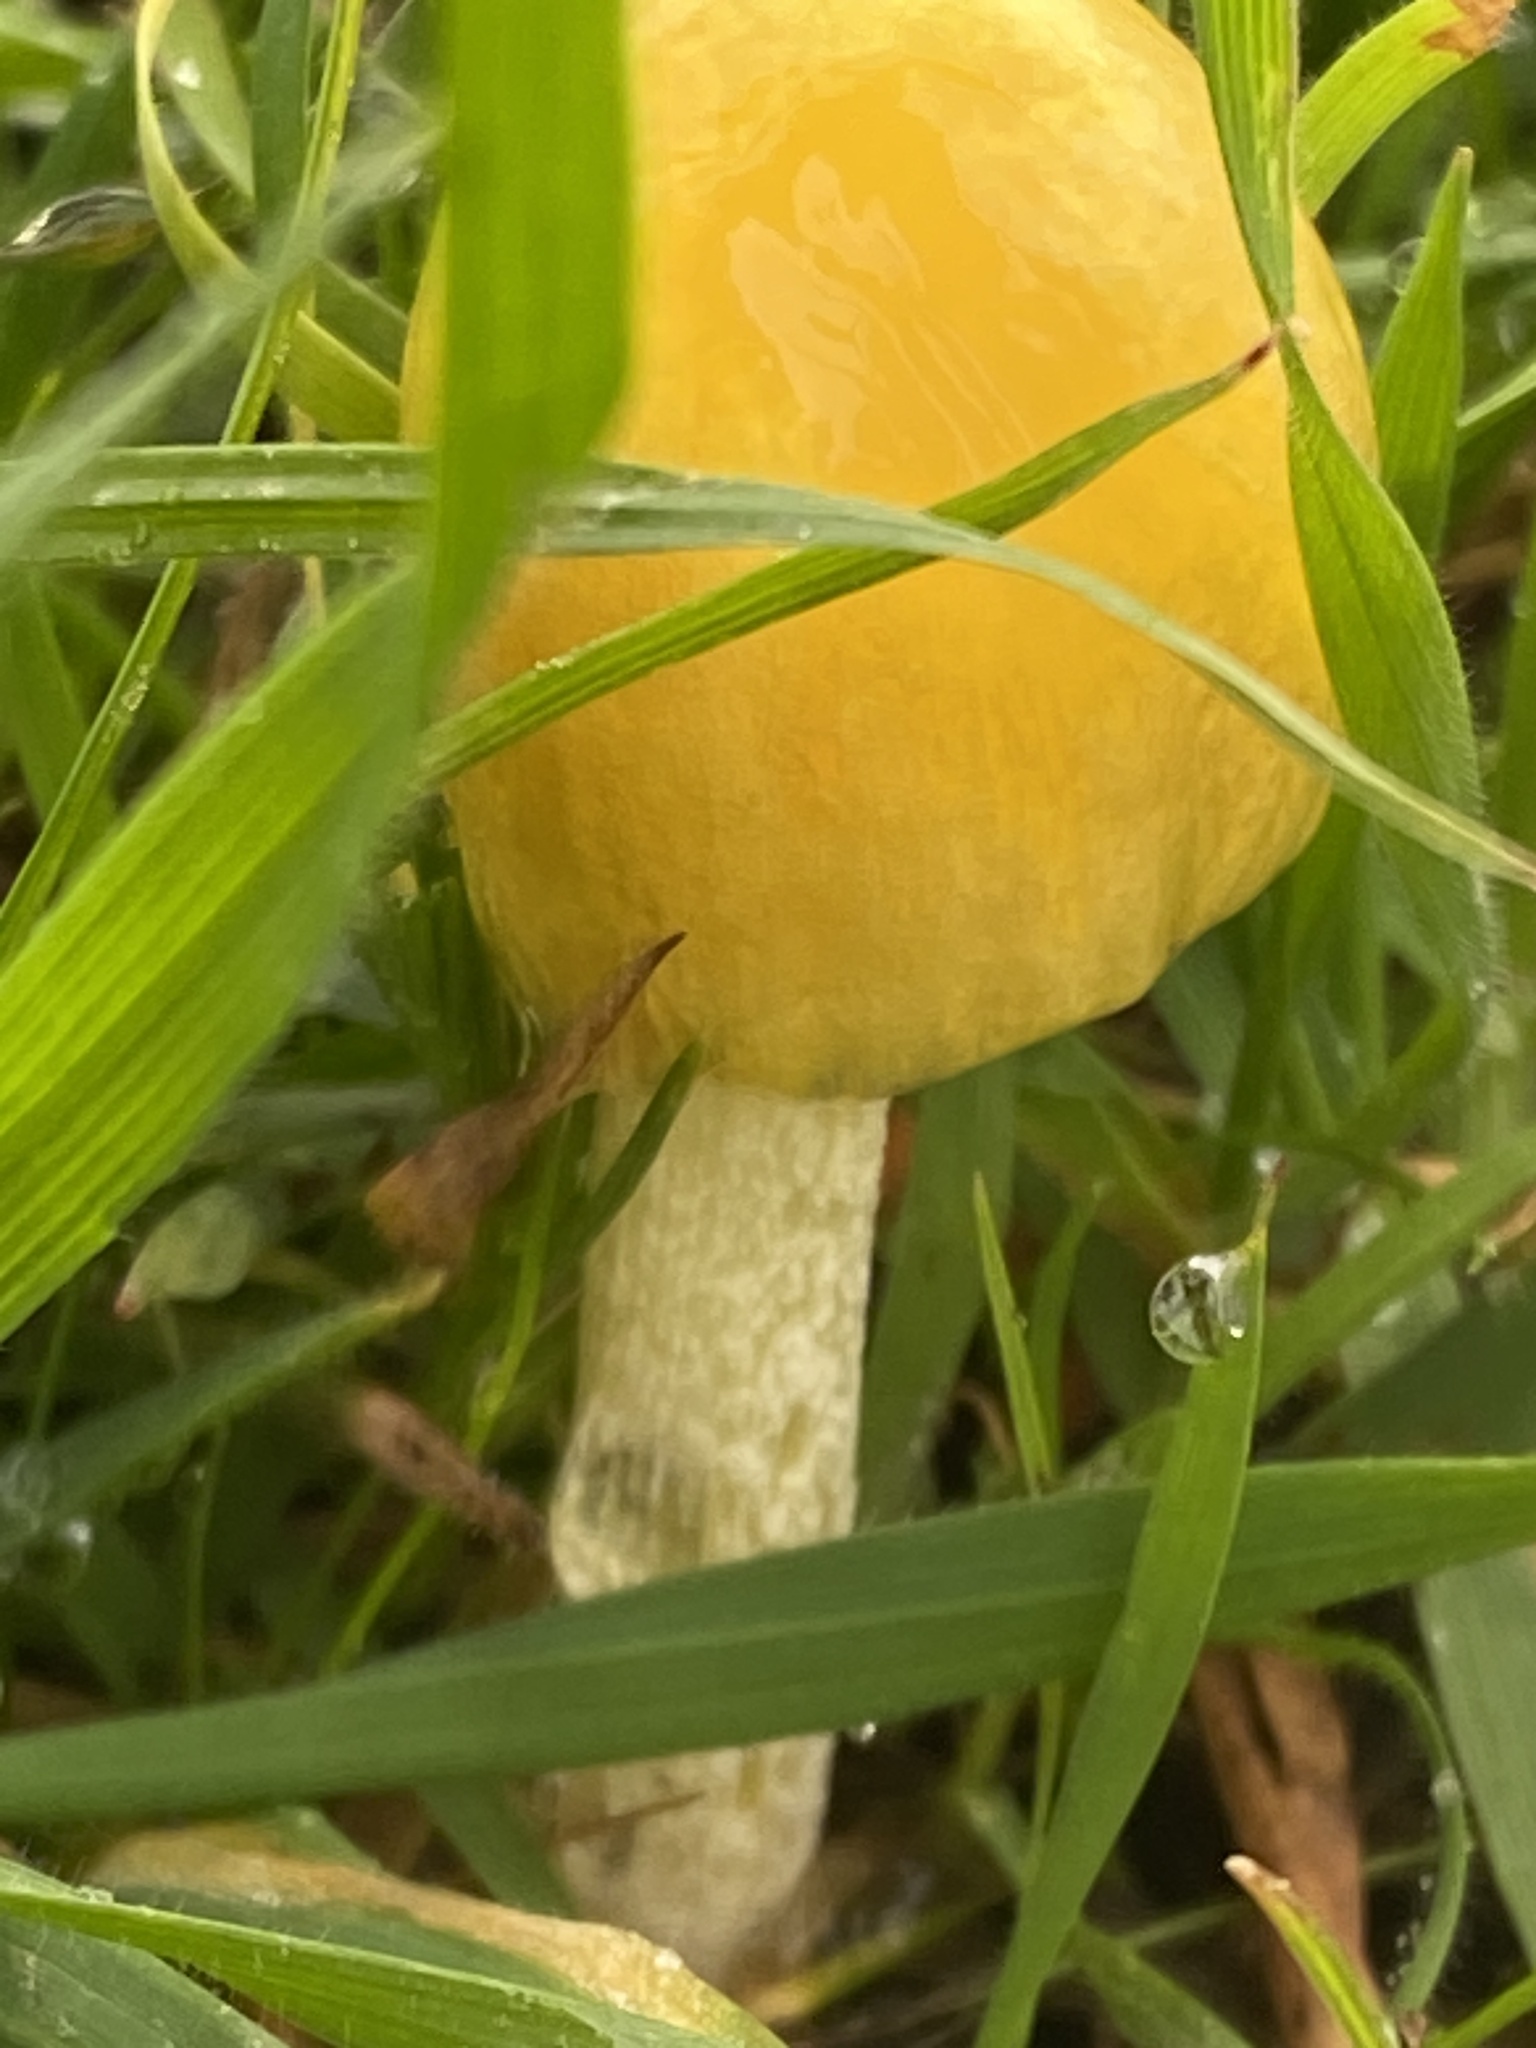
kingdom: Fungi
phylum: Basidiomycota
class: Agaricomycetes
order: Agaricales
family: Bolbitiaceae
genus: Bolbitius
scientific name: Bolbitius titubans
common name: Yellow fieldcap
